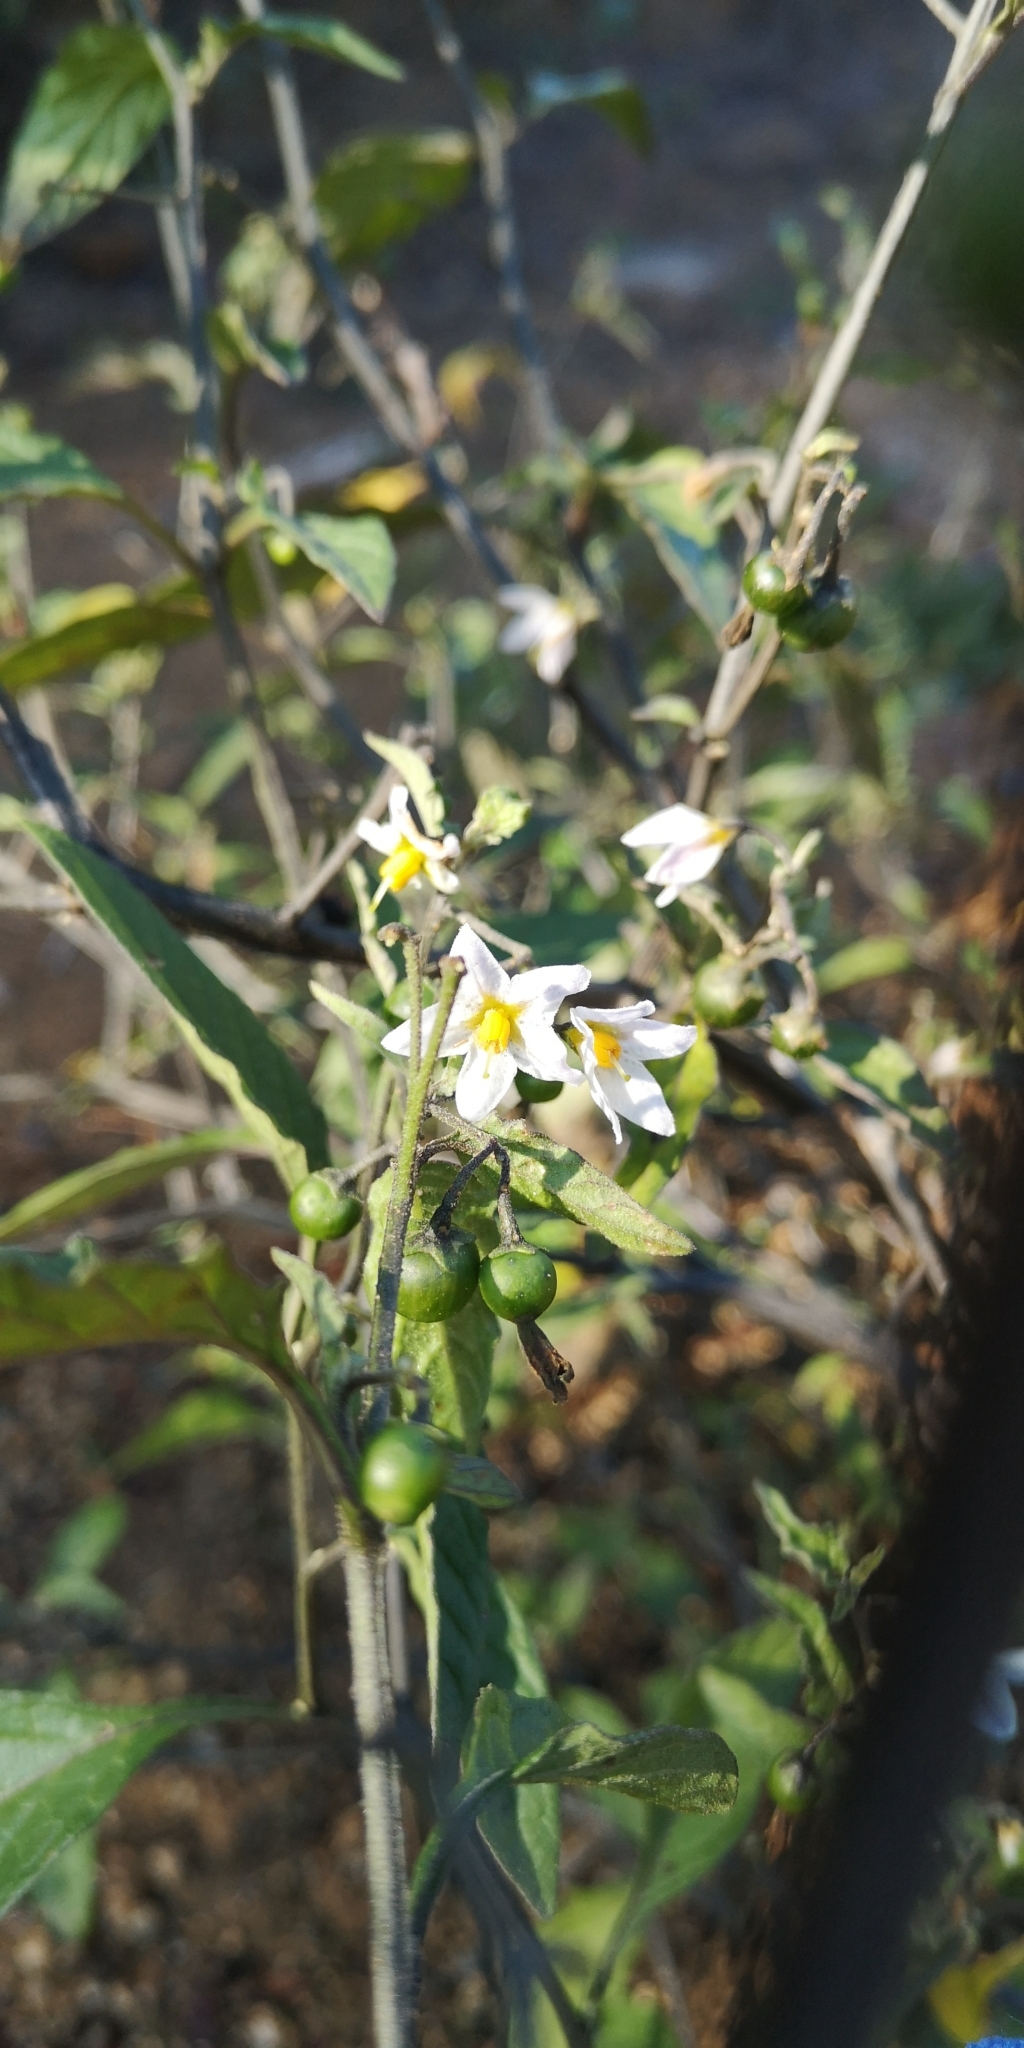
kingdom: Plantae
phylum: Tracheophyta
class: Magnoliopsida
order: Solanales
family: Solanaceae
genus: Solanum
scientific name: Solanum furcatum
